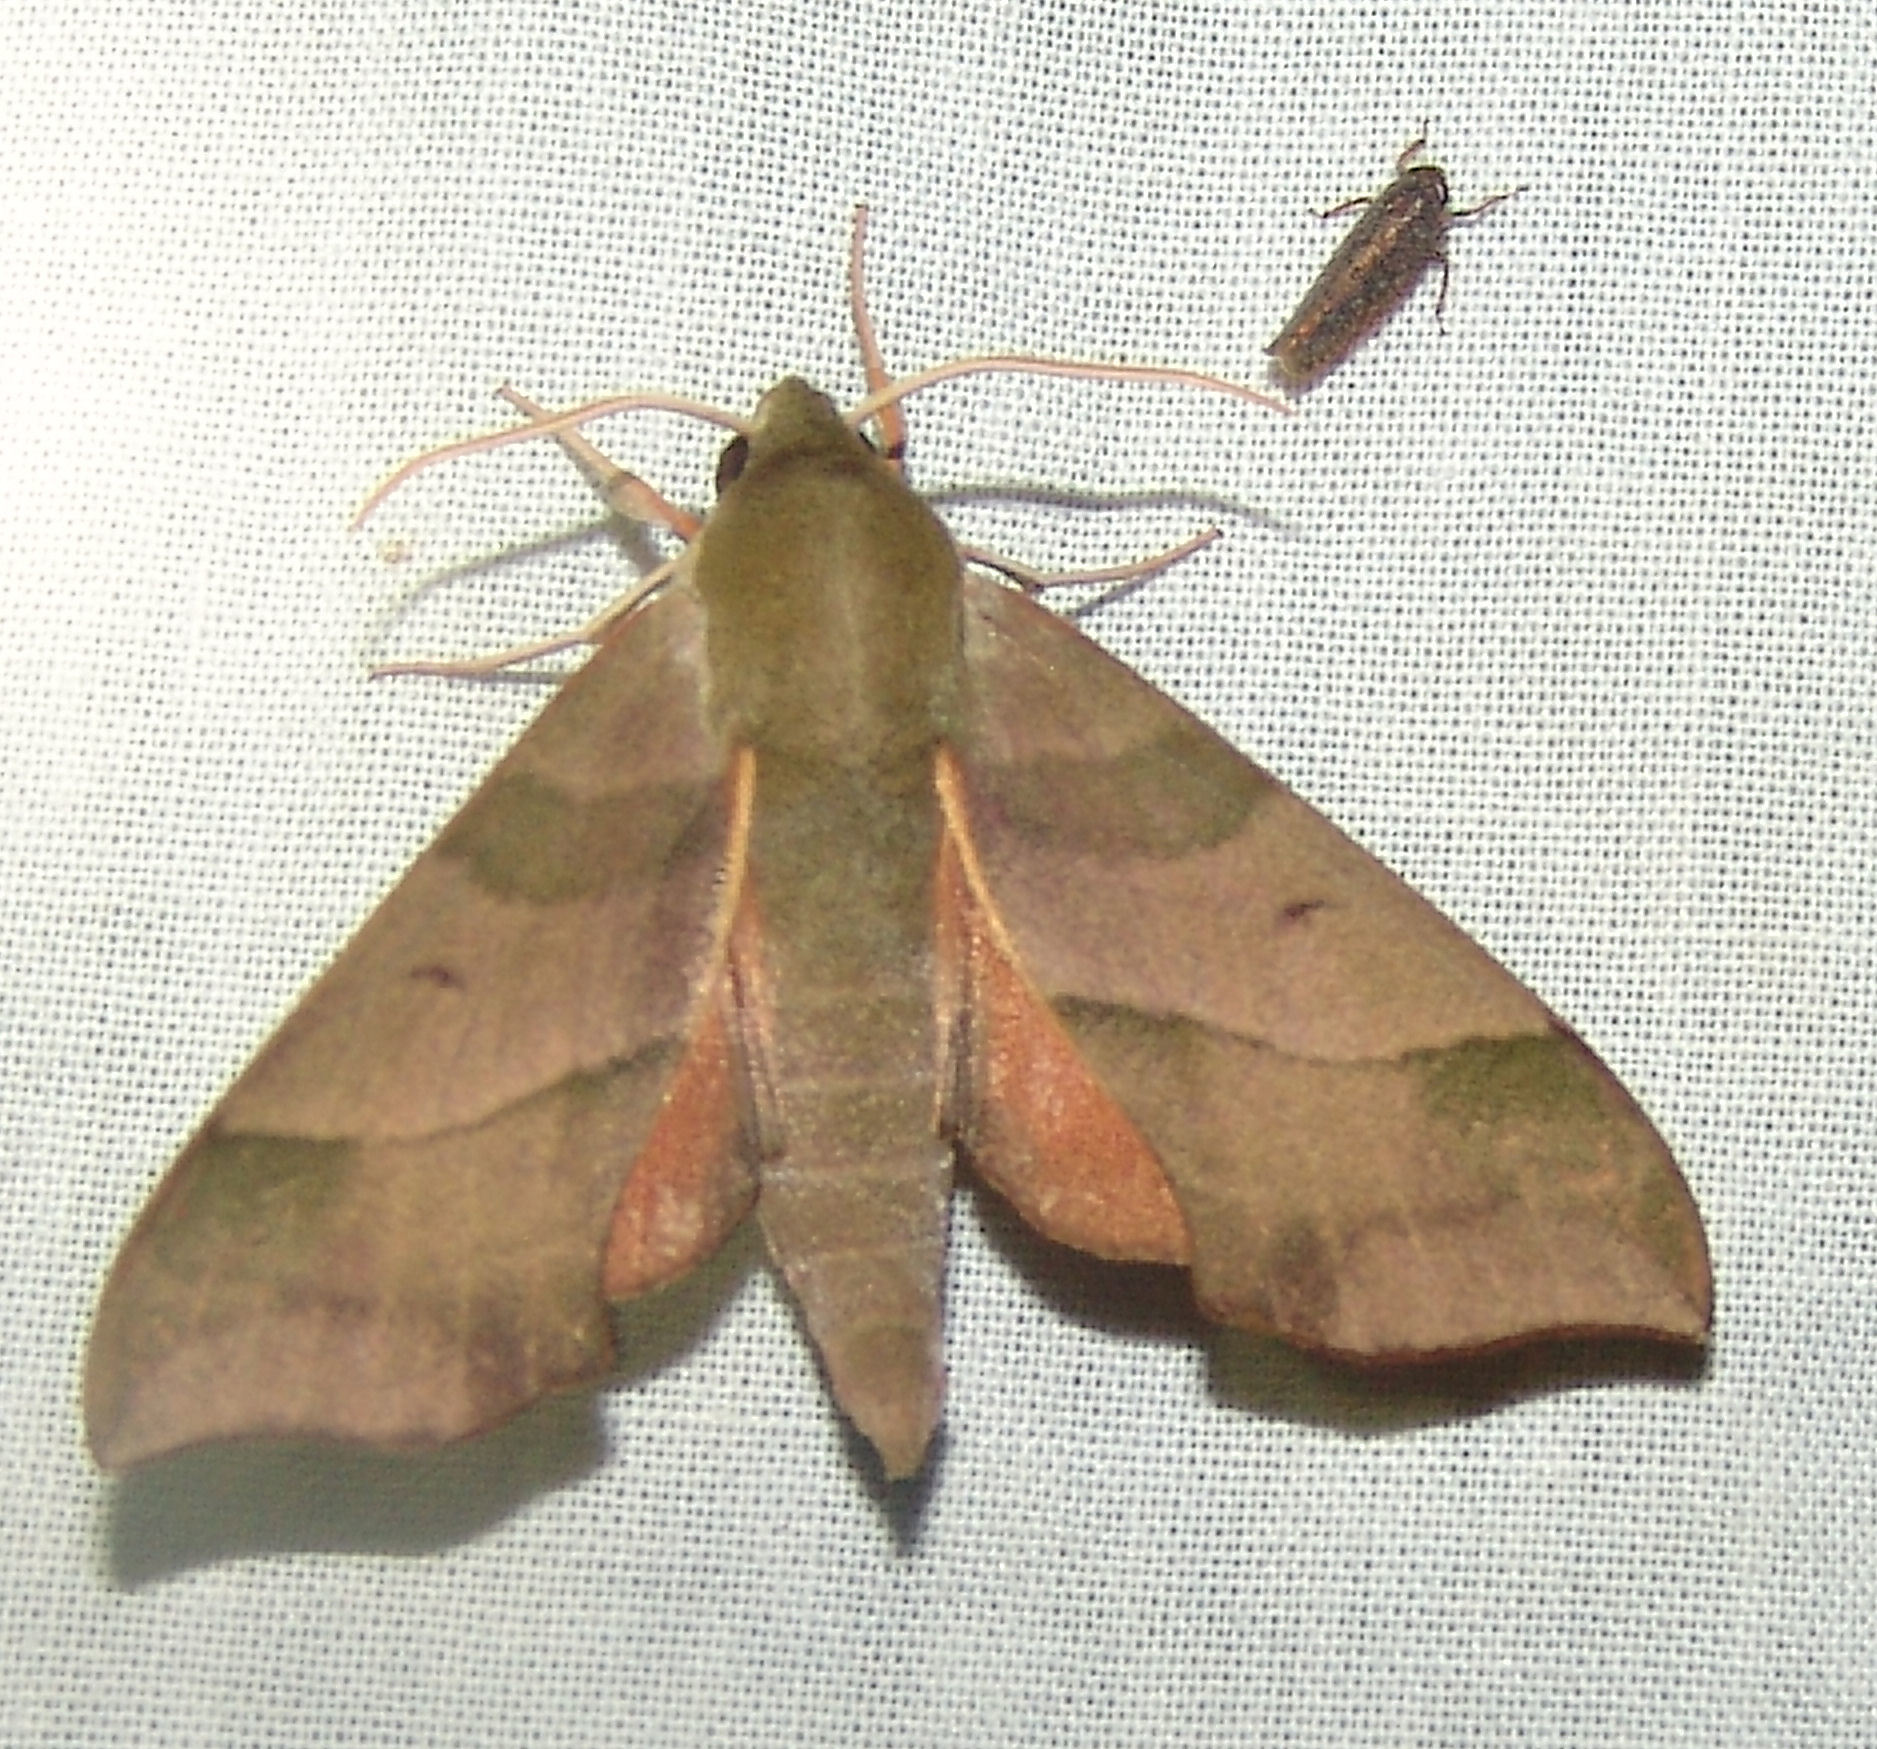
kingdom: Animalia
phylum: Arthropoda
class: Insecta
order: Lepidoptera
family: Sphingidae
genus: Darapsa
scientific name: Darapsa myron
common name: Hog sphinx
